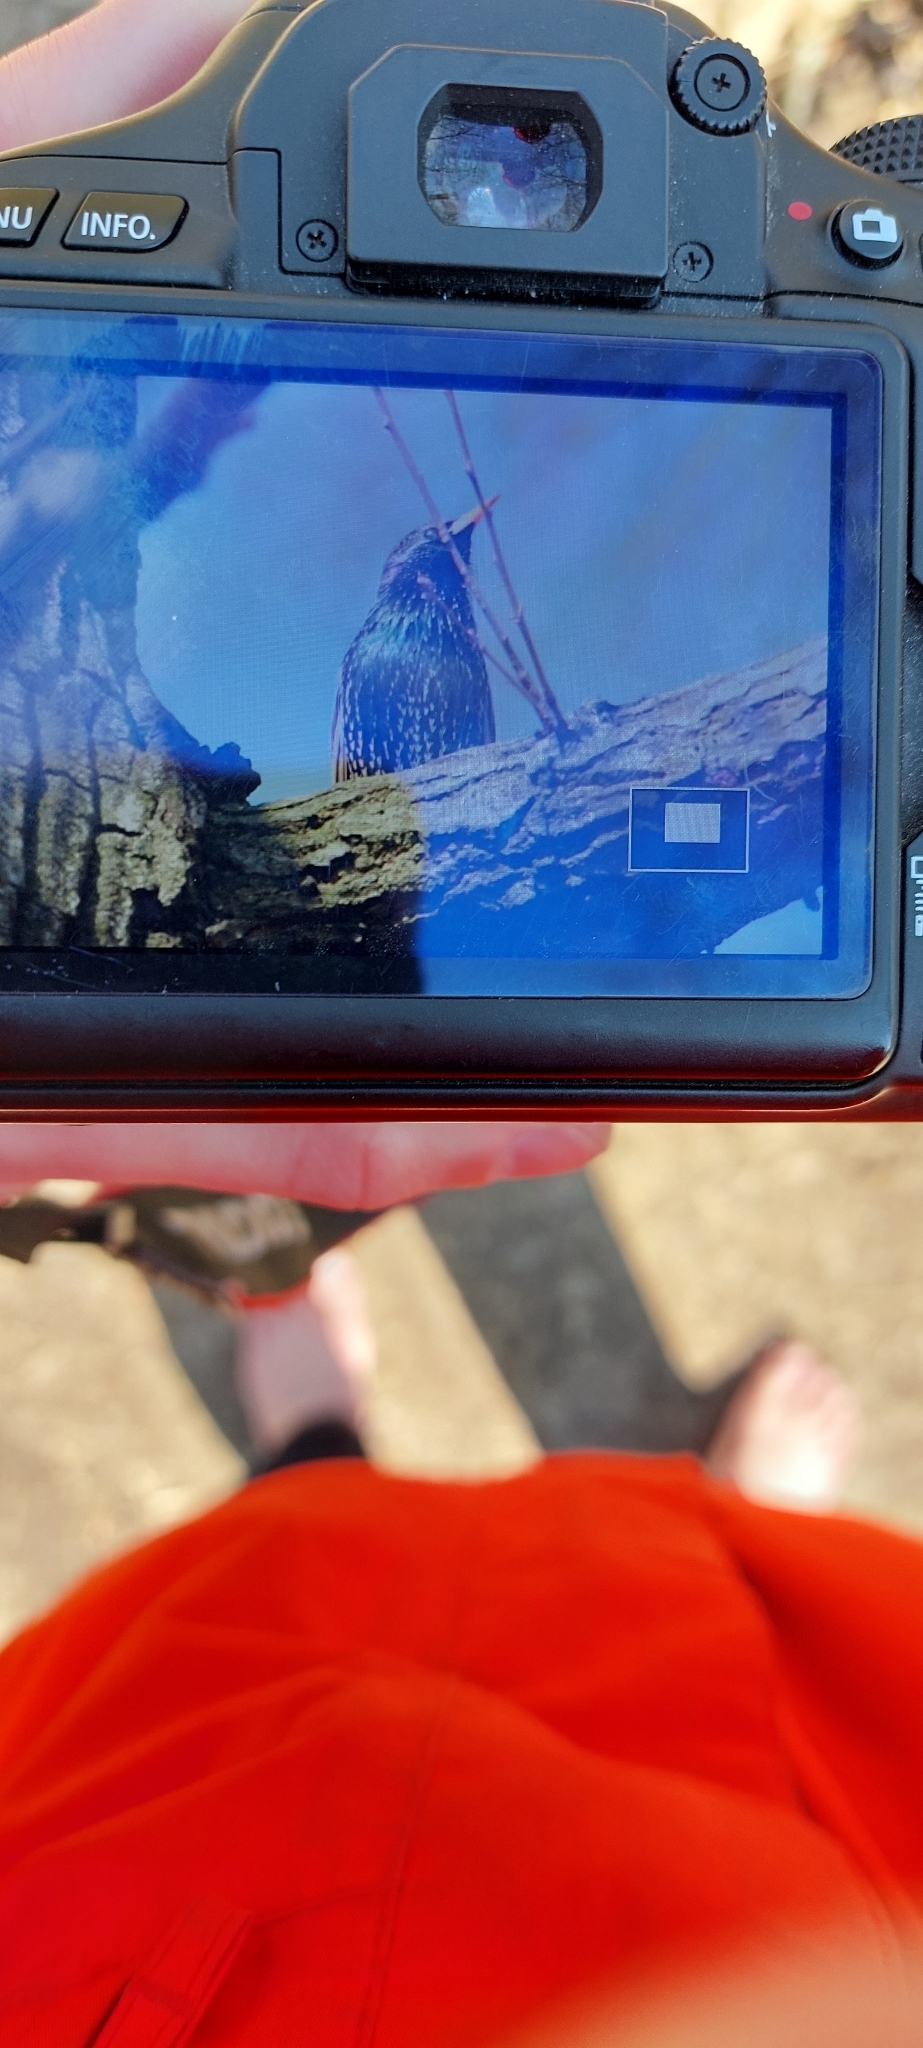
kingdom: Animalia
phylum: Chordata
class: Aves
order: Passeriformes
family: Sturnidae
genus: Sturnus
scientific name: Sturnus vulgaris
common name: Common starling
